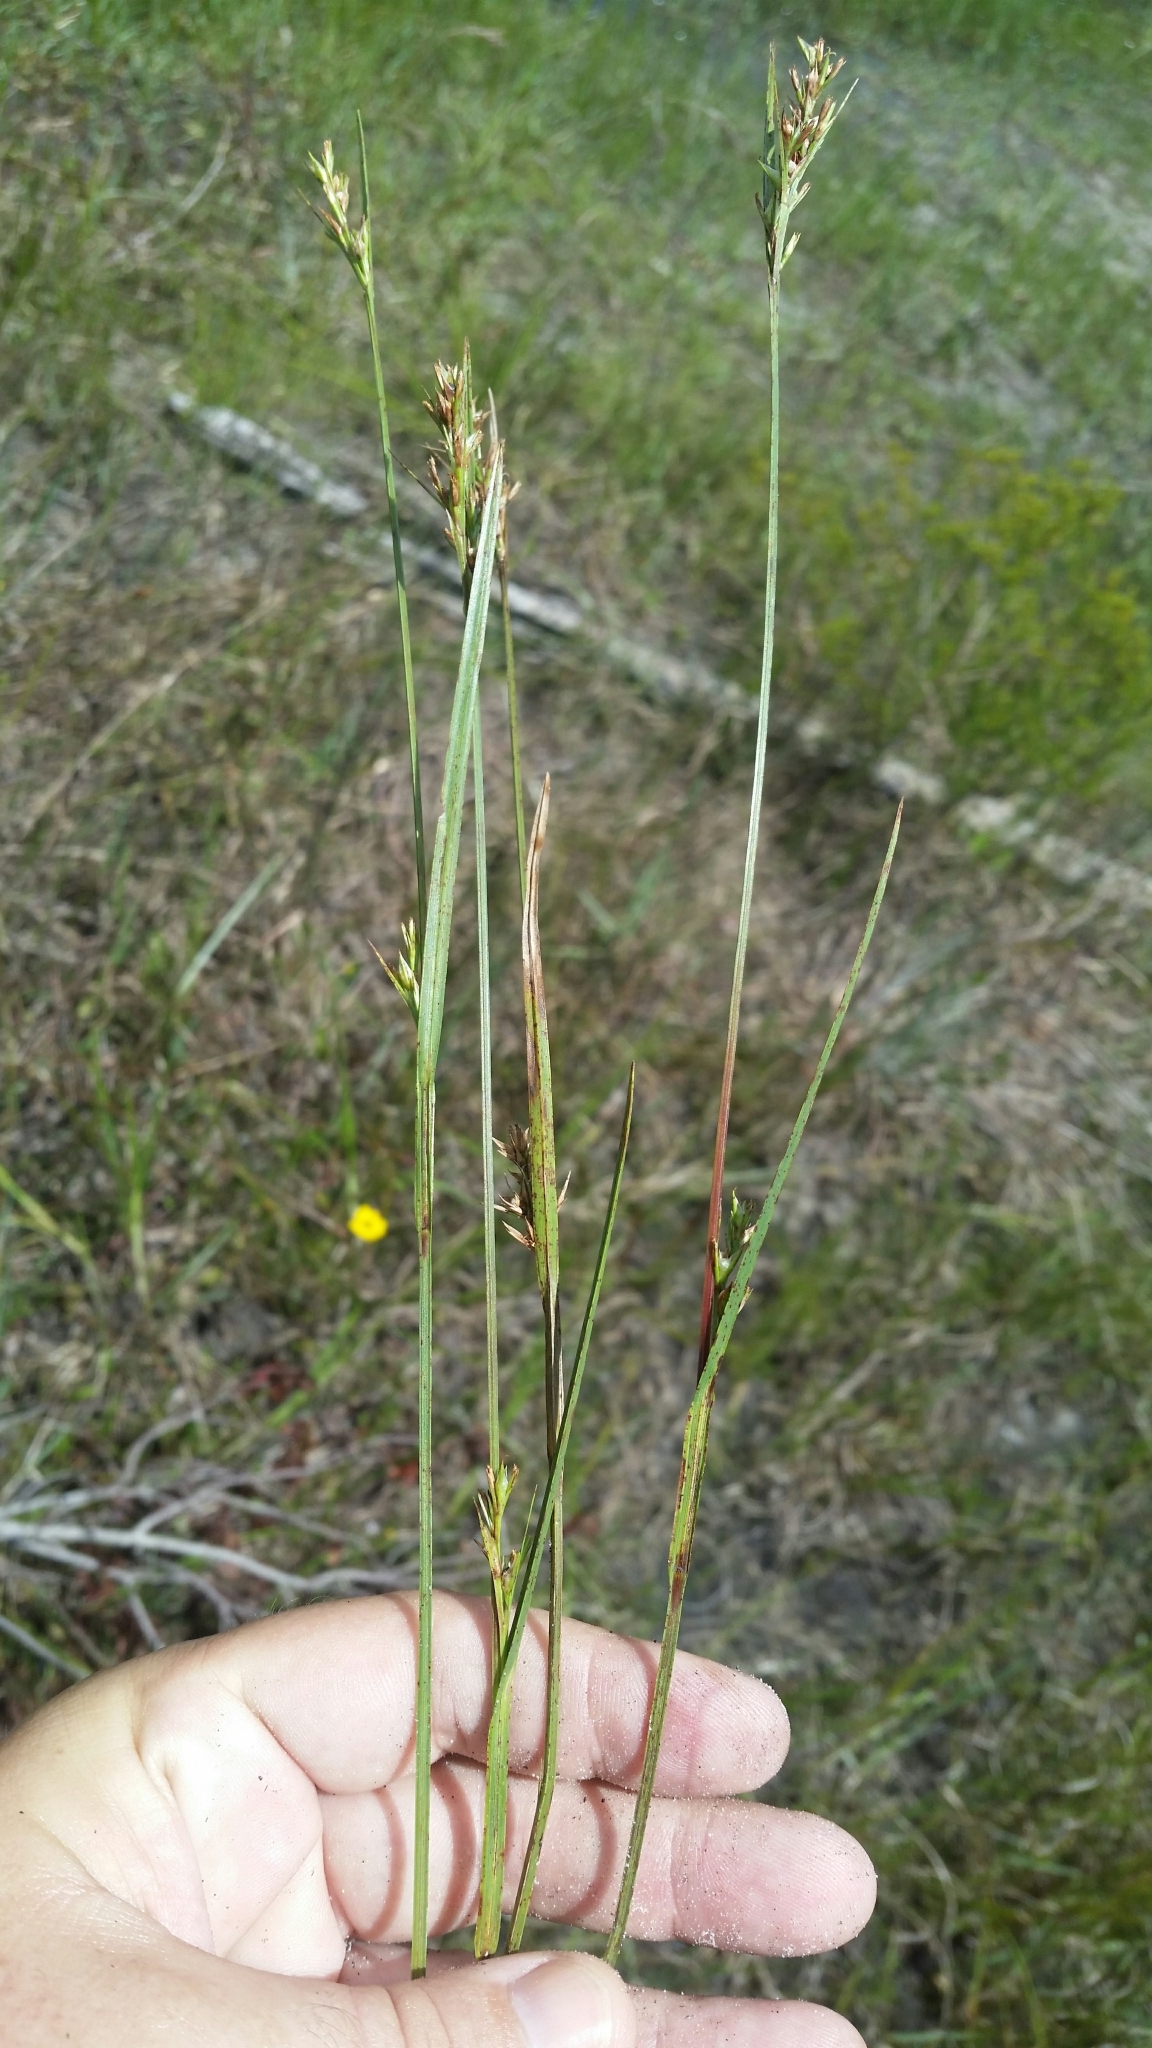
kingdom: Plantae
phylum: Tracheophyta
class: Liliopsida
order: Poales
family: Cyperaceae
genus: Scleria
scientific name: Scleria muehlenbergii
